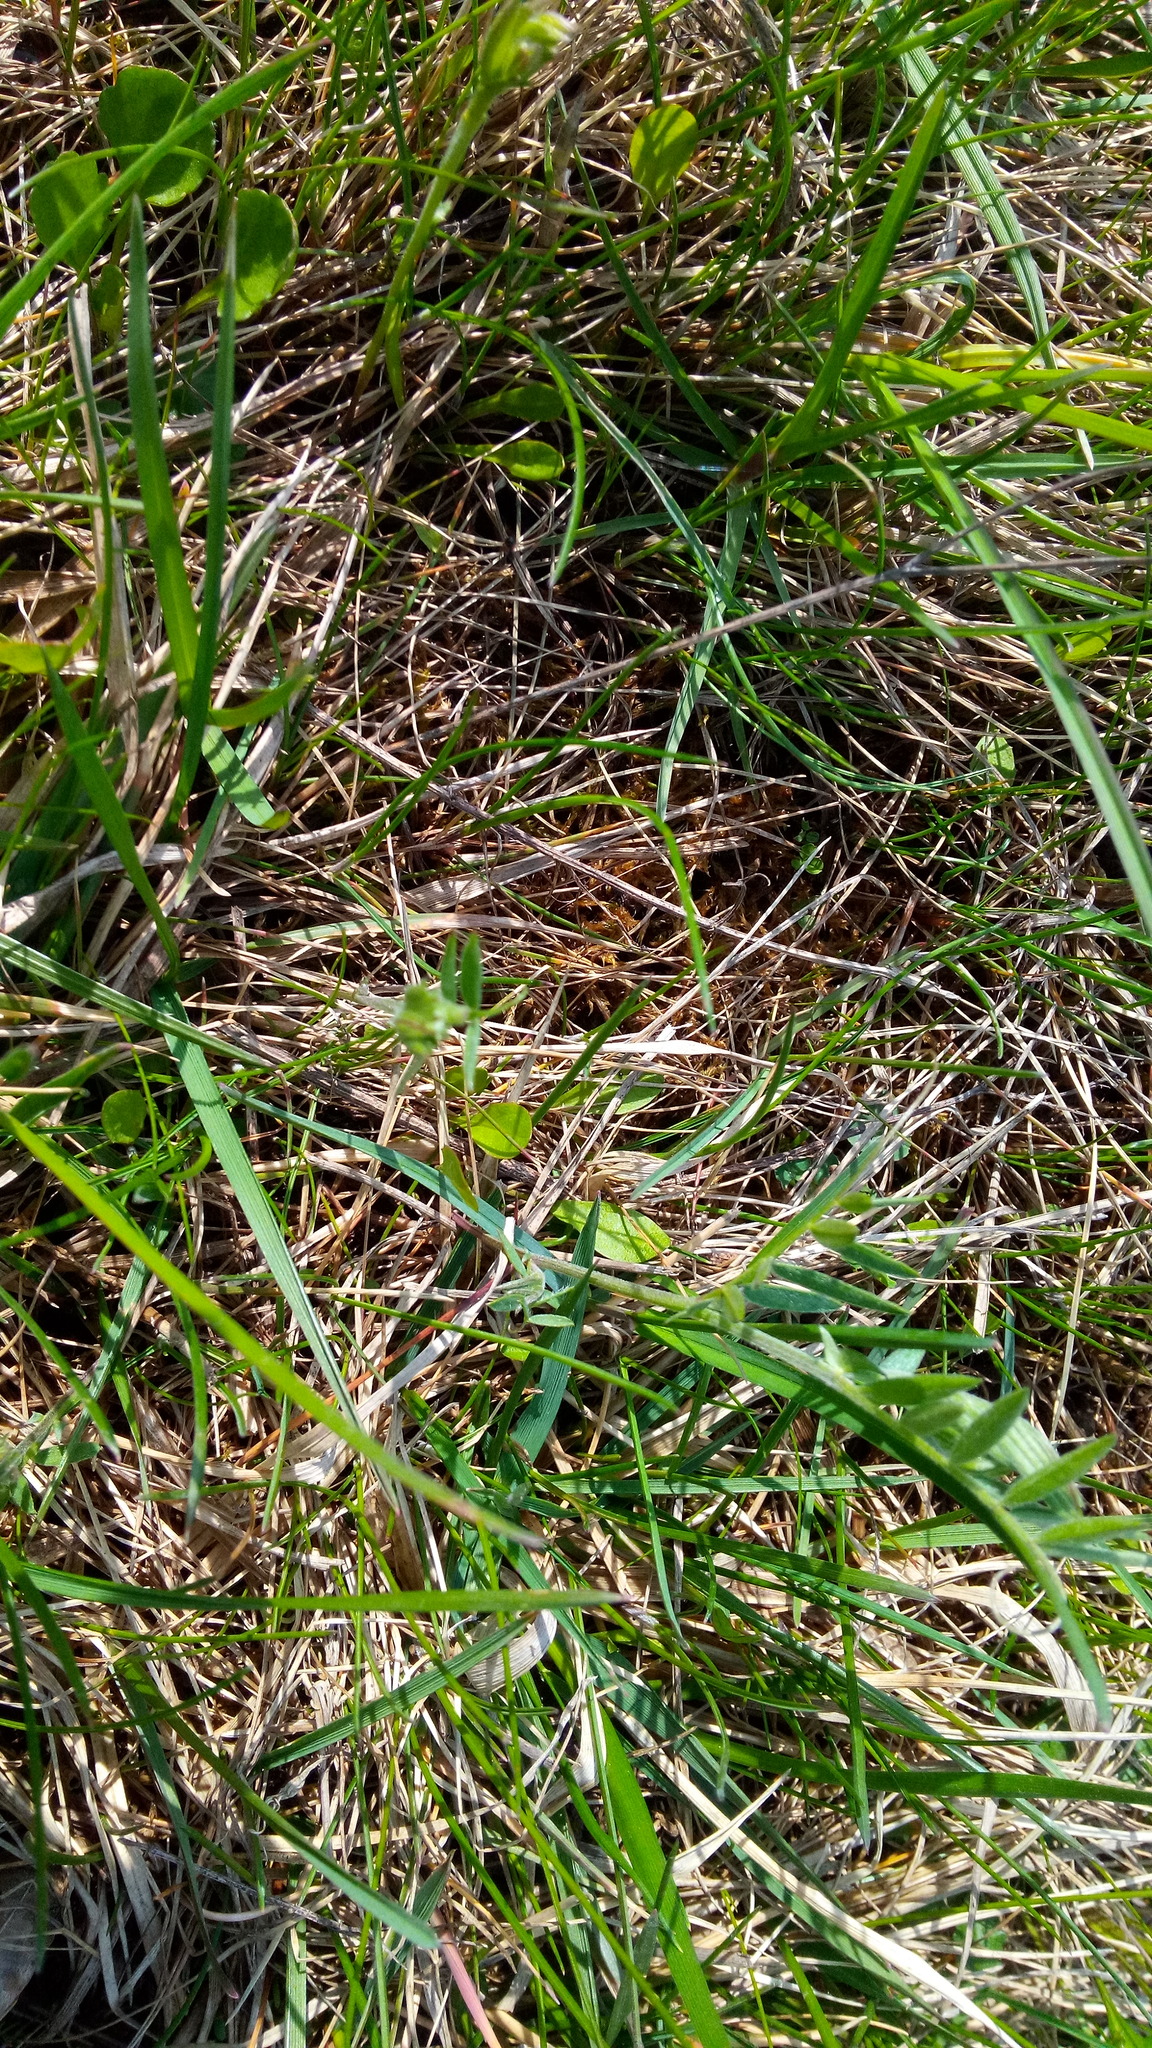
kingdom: Plantae
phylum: Tracheophyta
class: Magnoliopsida
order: Fabales
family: Fabaceae
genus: Vicia
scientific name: Vicia cracca
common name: Bird vetch
